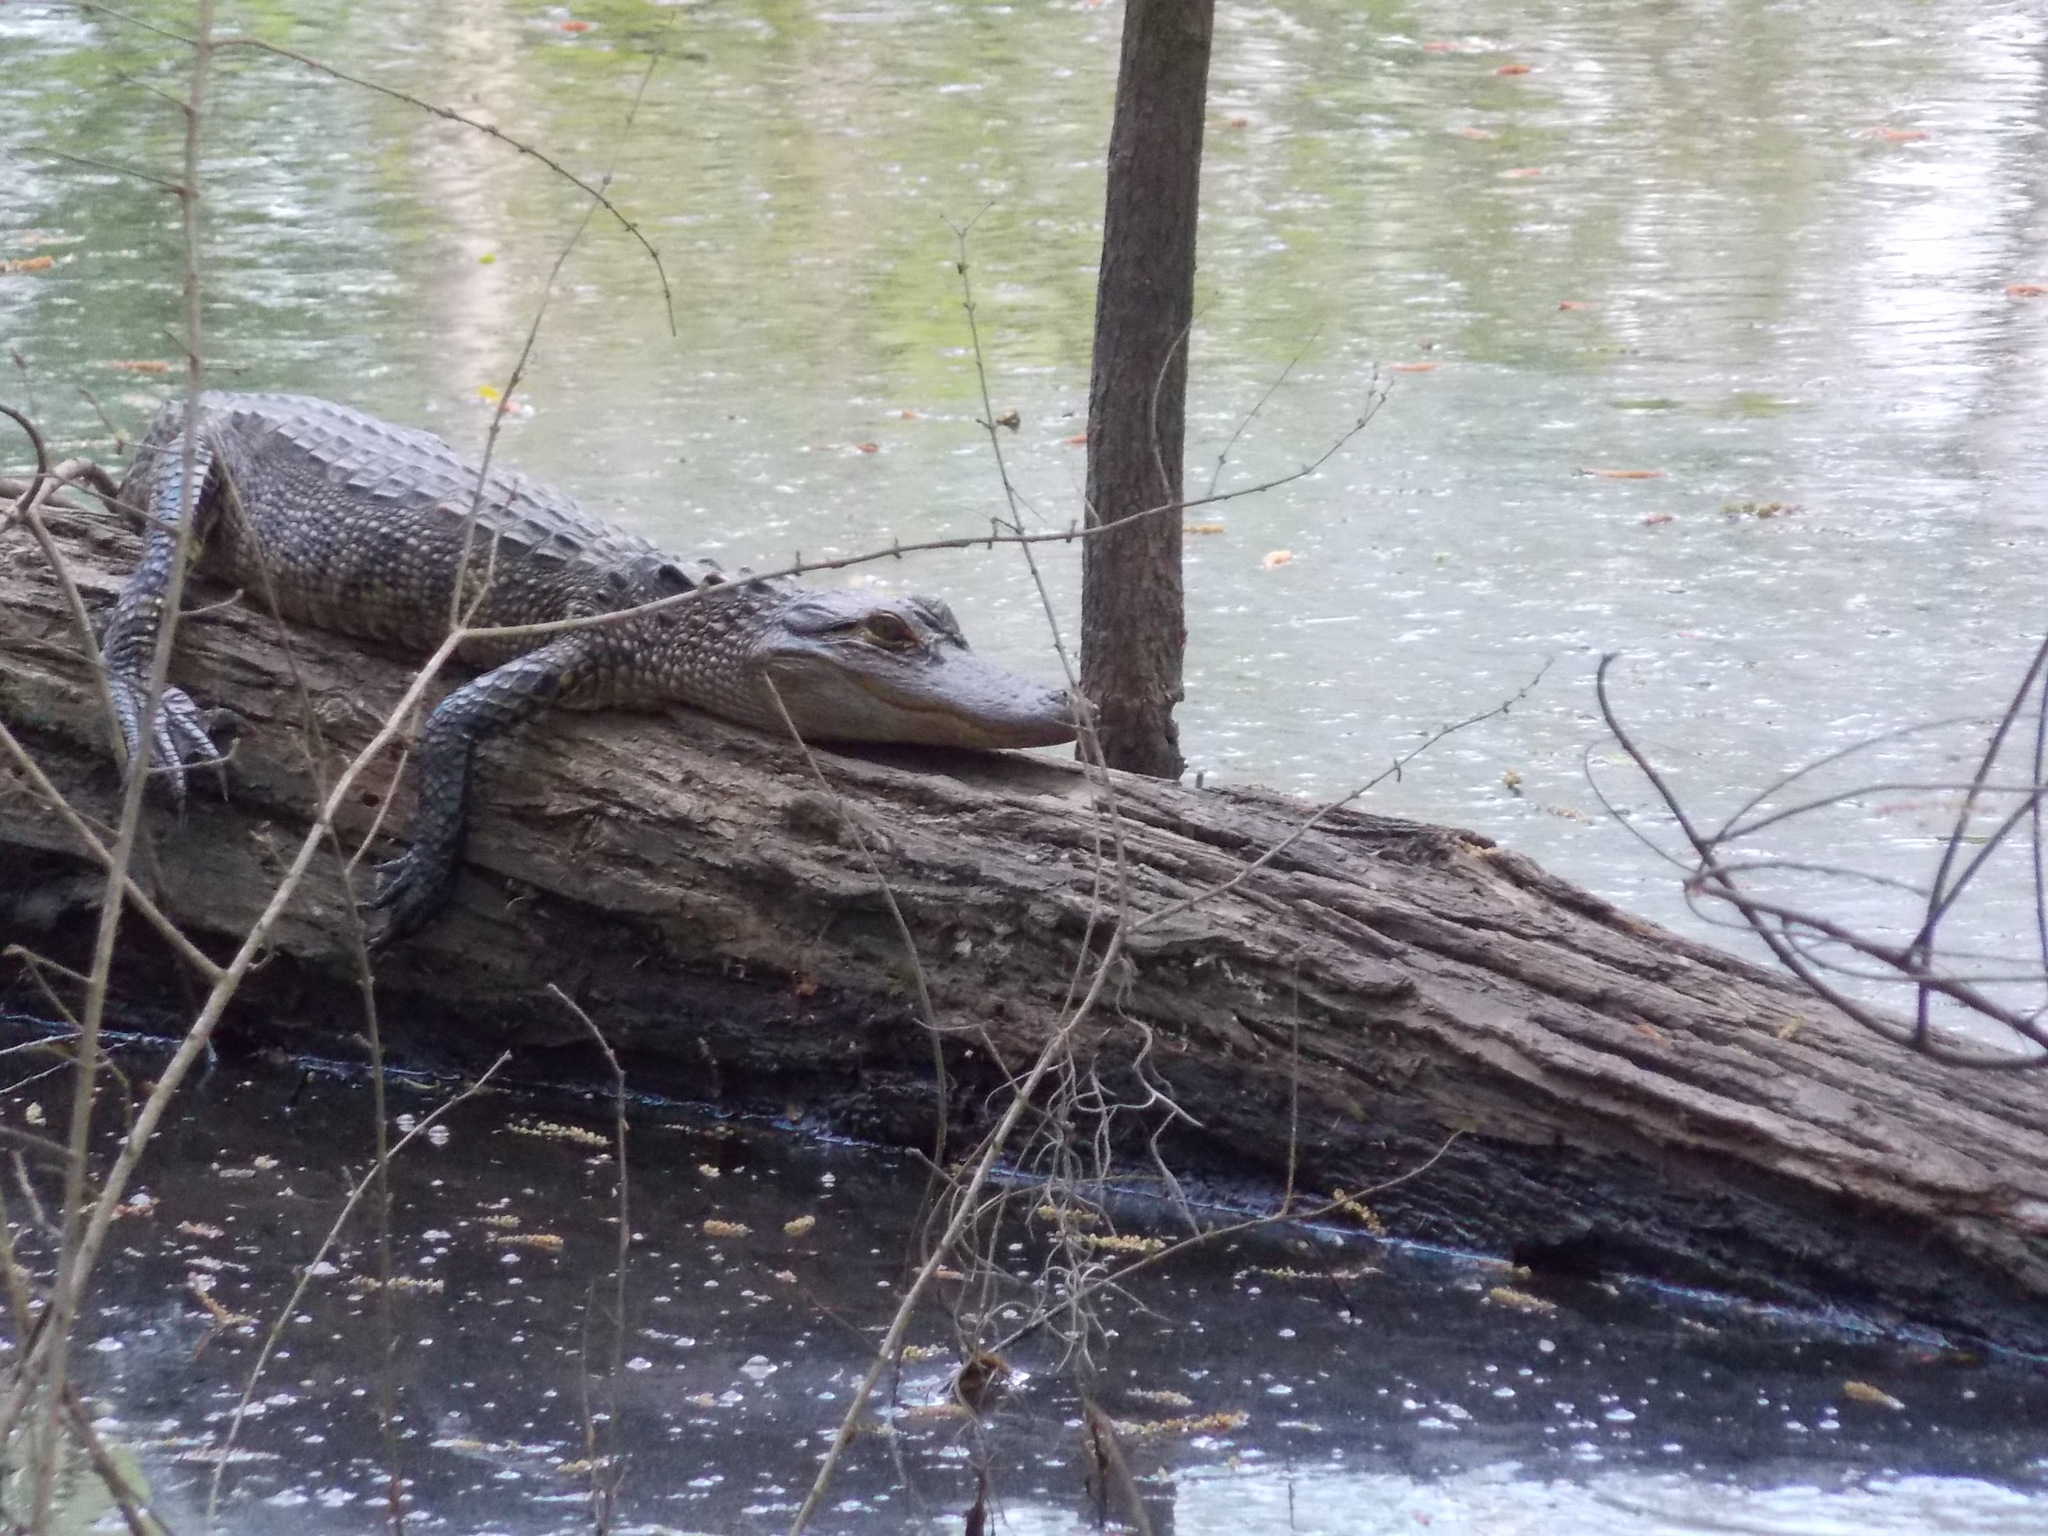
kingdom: Animalia
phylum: Chordata
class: Crocodylia
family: Alligatoridae
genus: Alligator
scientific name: Alligator mississippiensis
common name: American alligator
